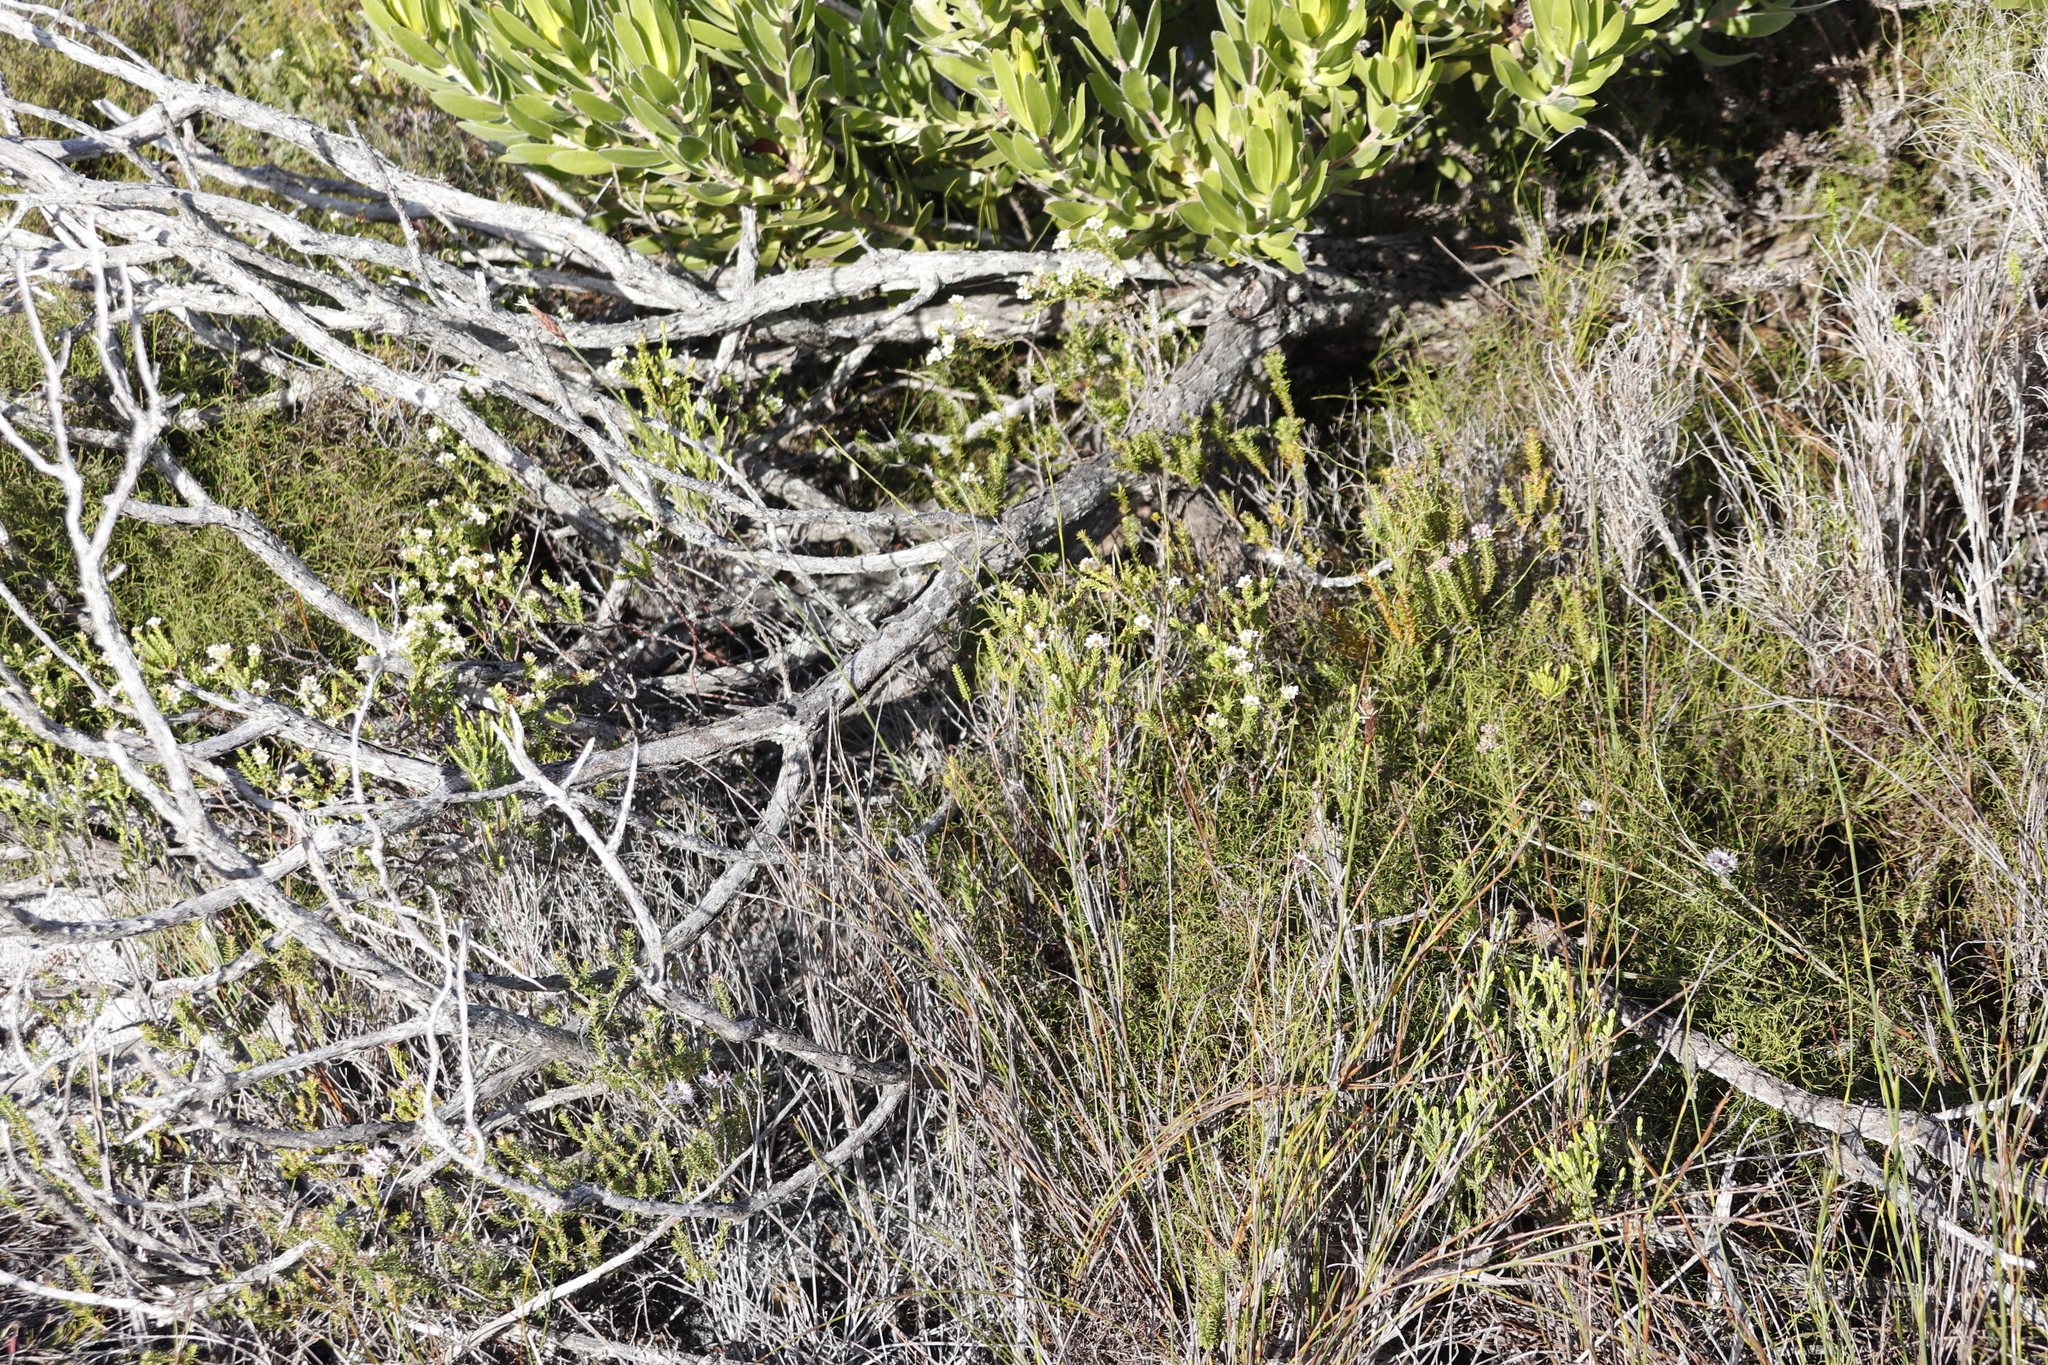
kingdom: Plantae
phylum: Tracheophyta
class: Magnoliopsida
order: Sapindales
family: Rutaceae
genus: Diosma
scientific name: Diosma oppositifolia
